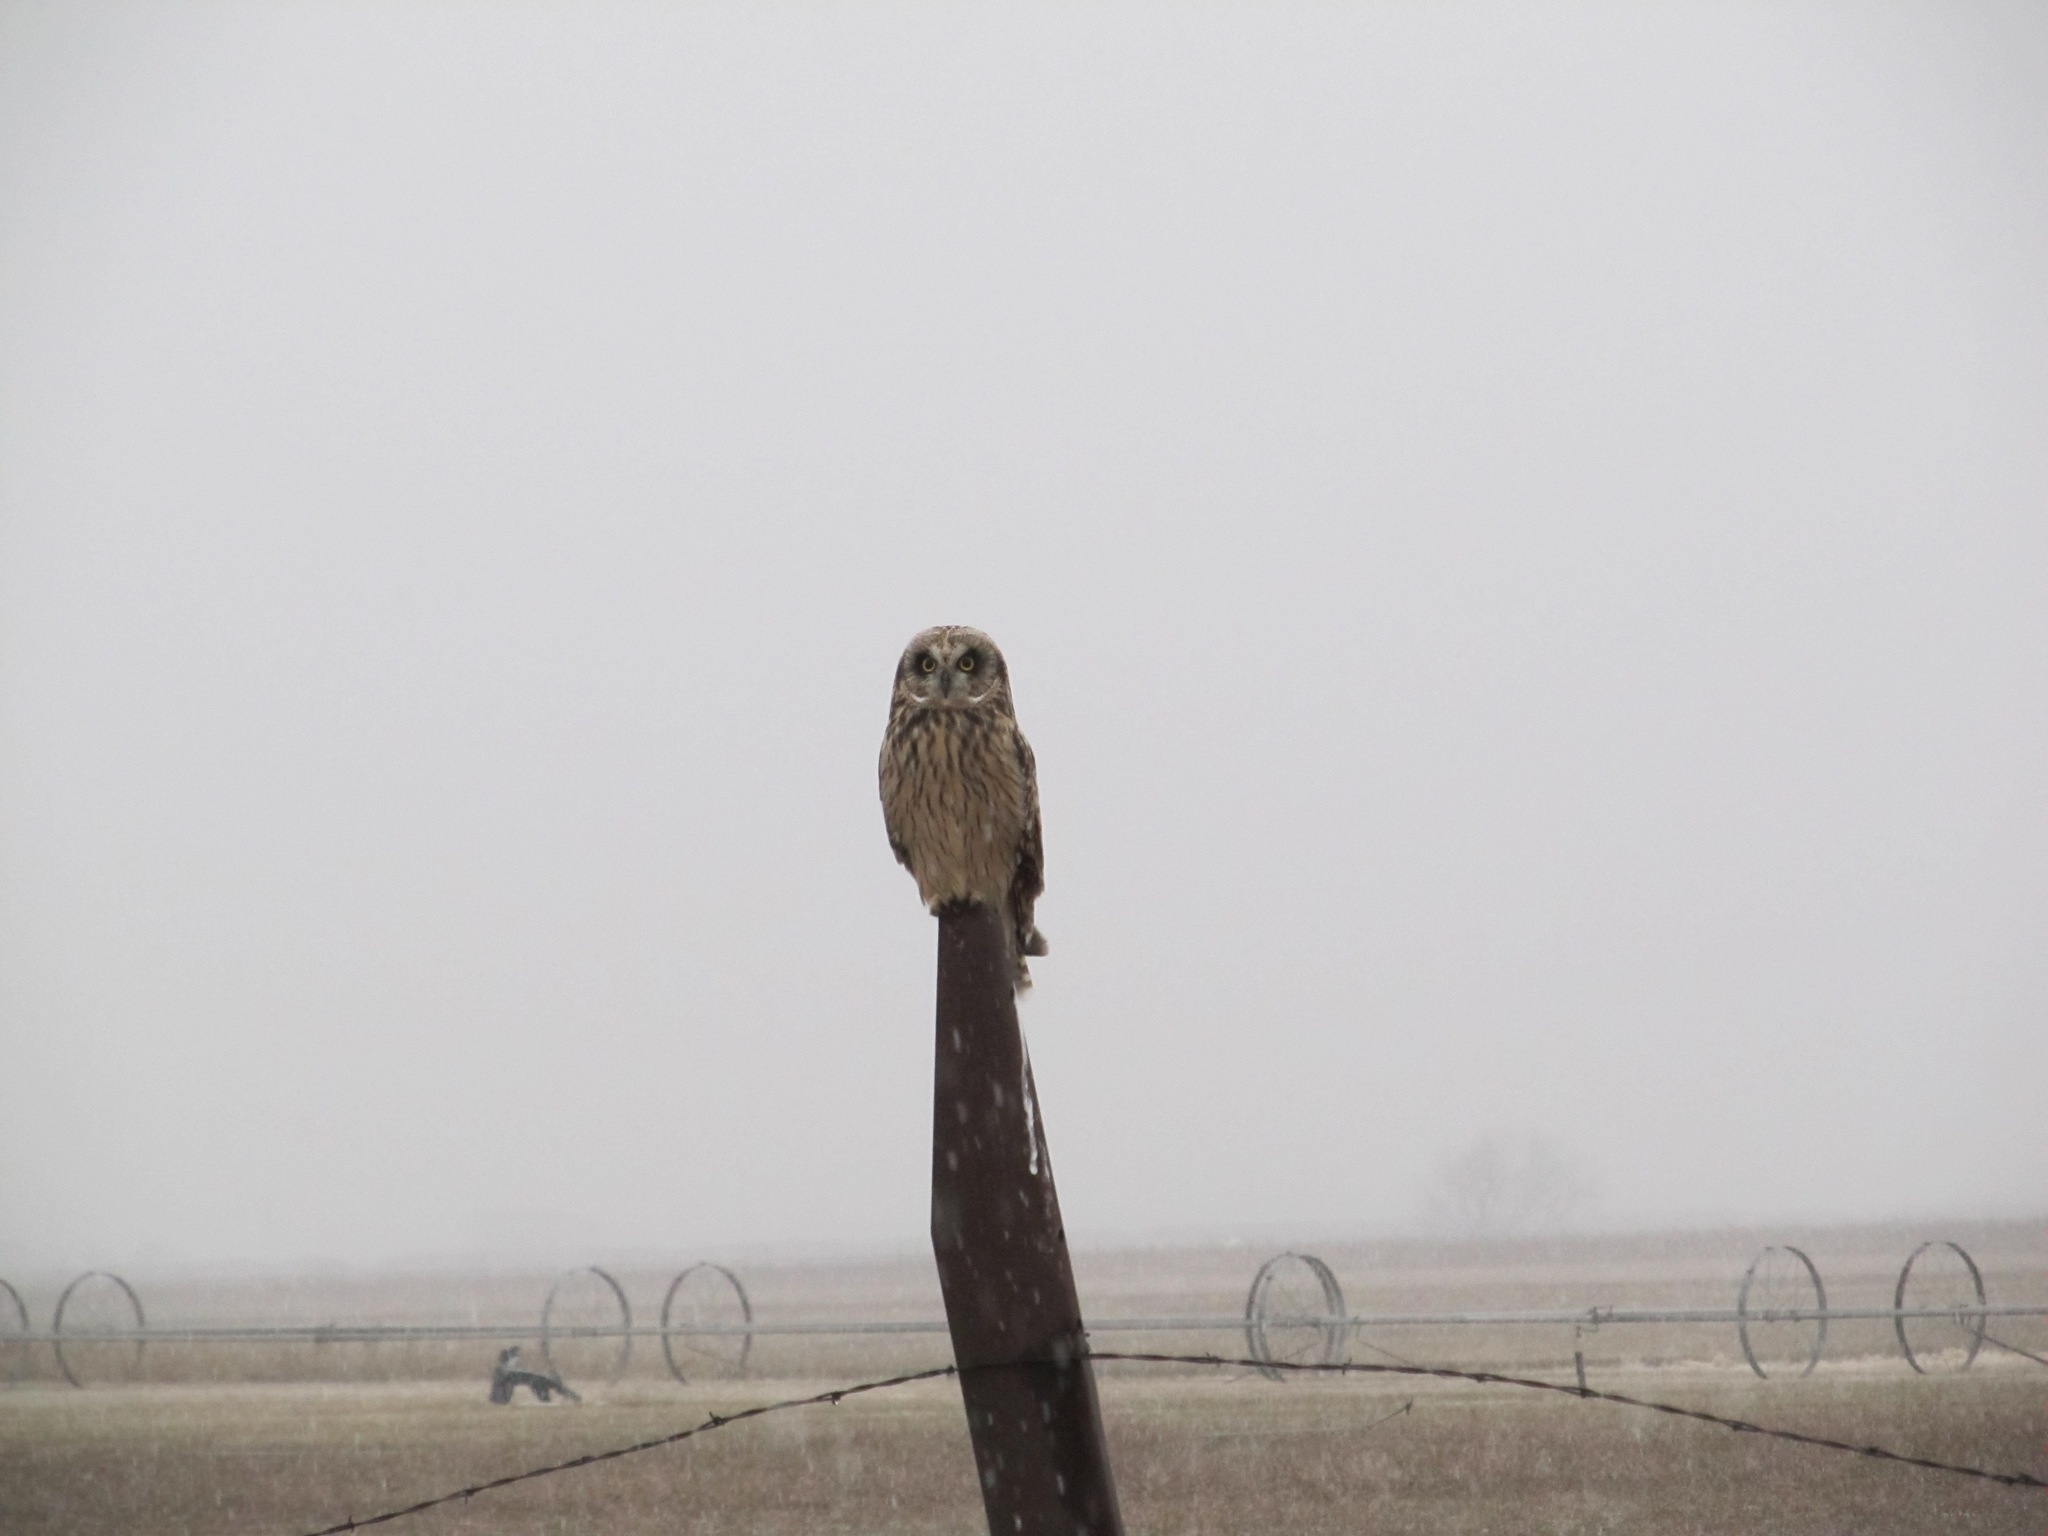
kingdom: Animalia
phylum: Chordata
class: Aves
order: Strigiformes
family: Strigidae
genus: Asio
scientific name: Asio flammeus
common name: Short-eared owl
